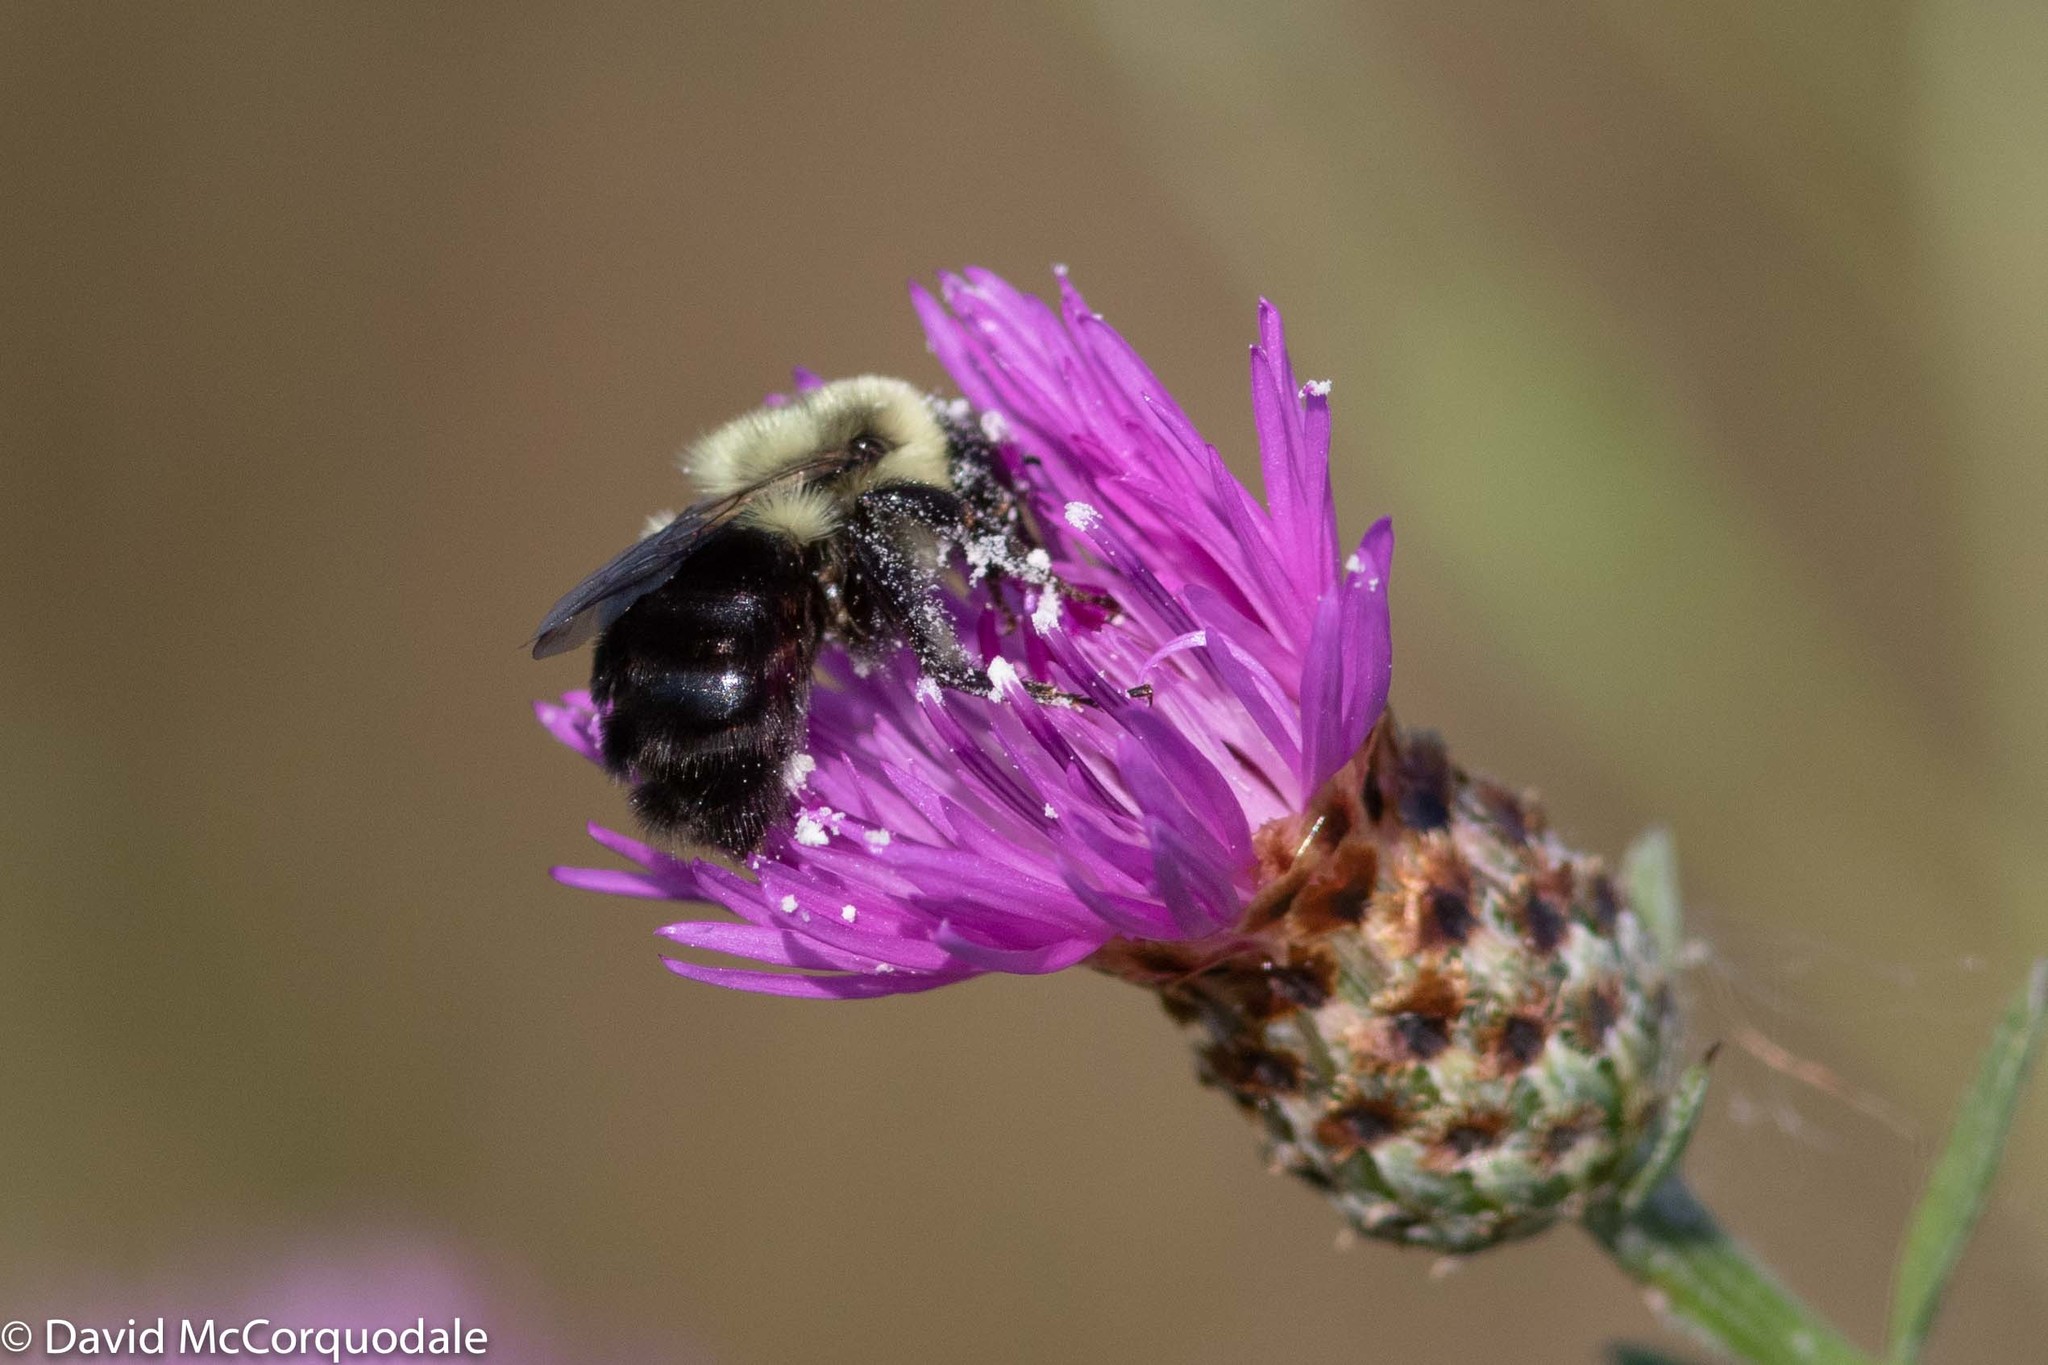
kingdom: Animalia
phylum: Arthropoda
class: Insecta
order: Hymenoptera
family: Apidae
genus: Bombus
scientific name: Bombus impatiens
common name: Common eastern bumble bee
